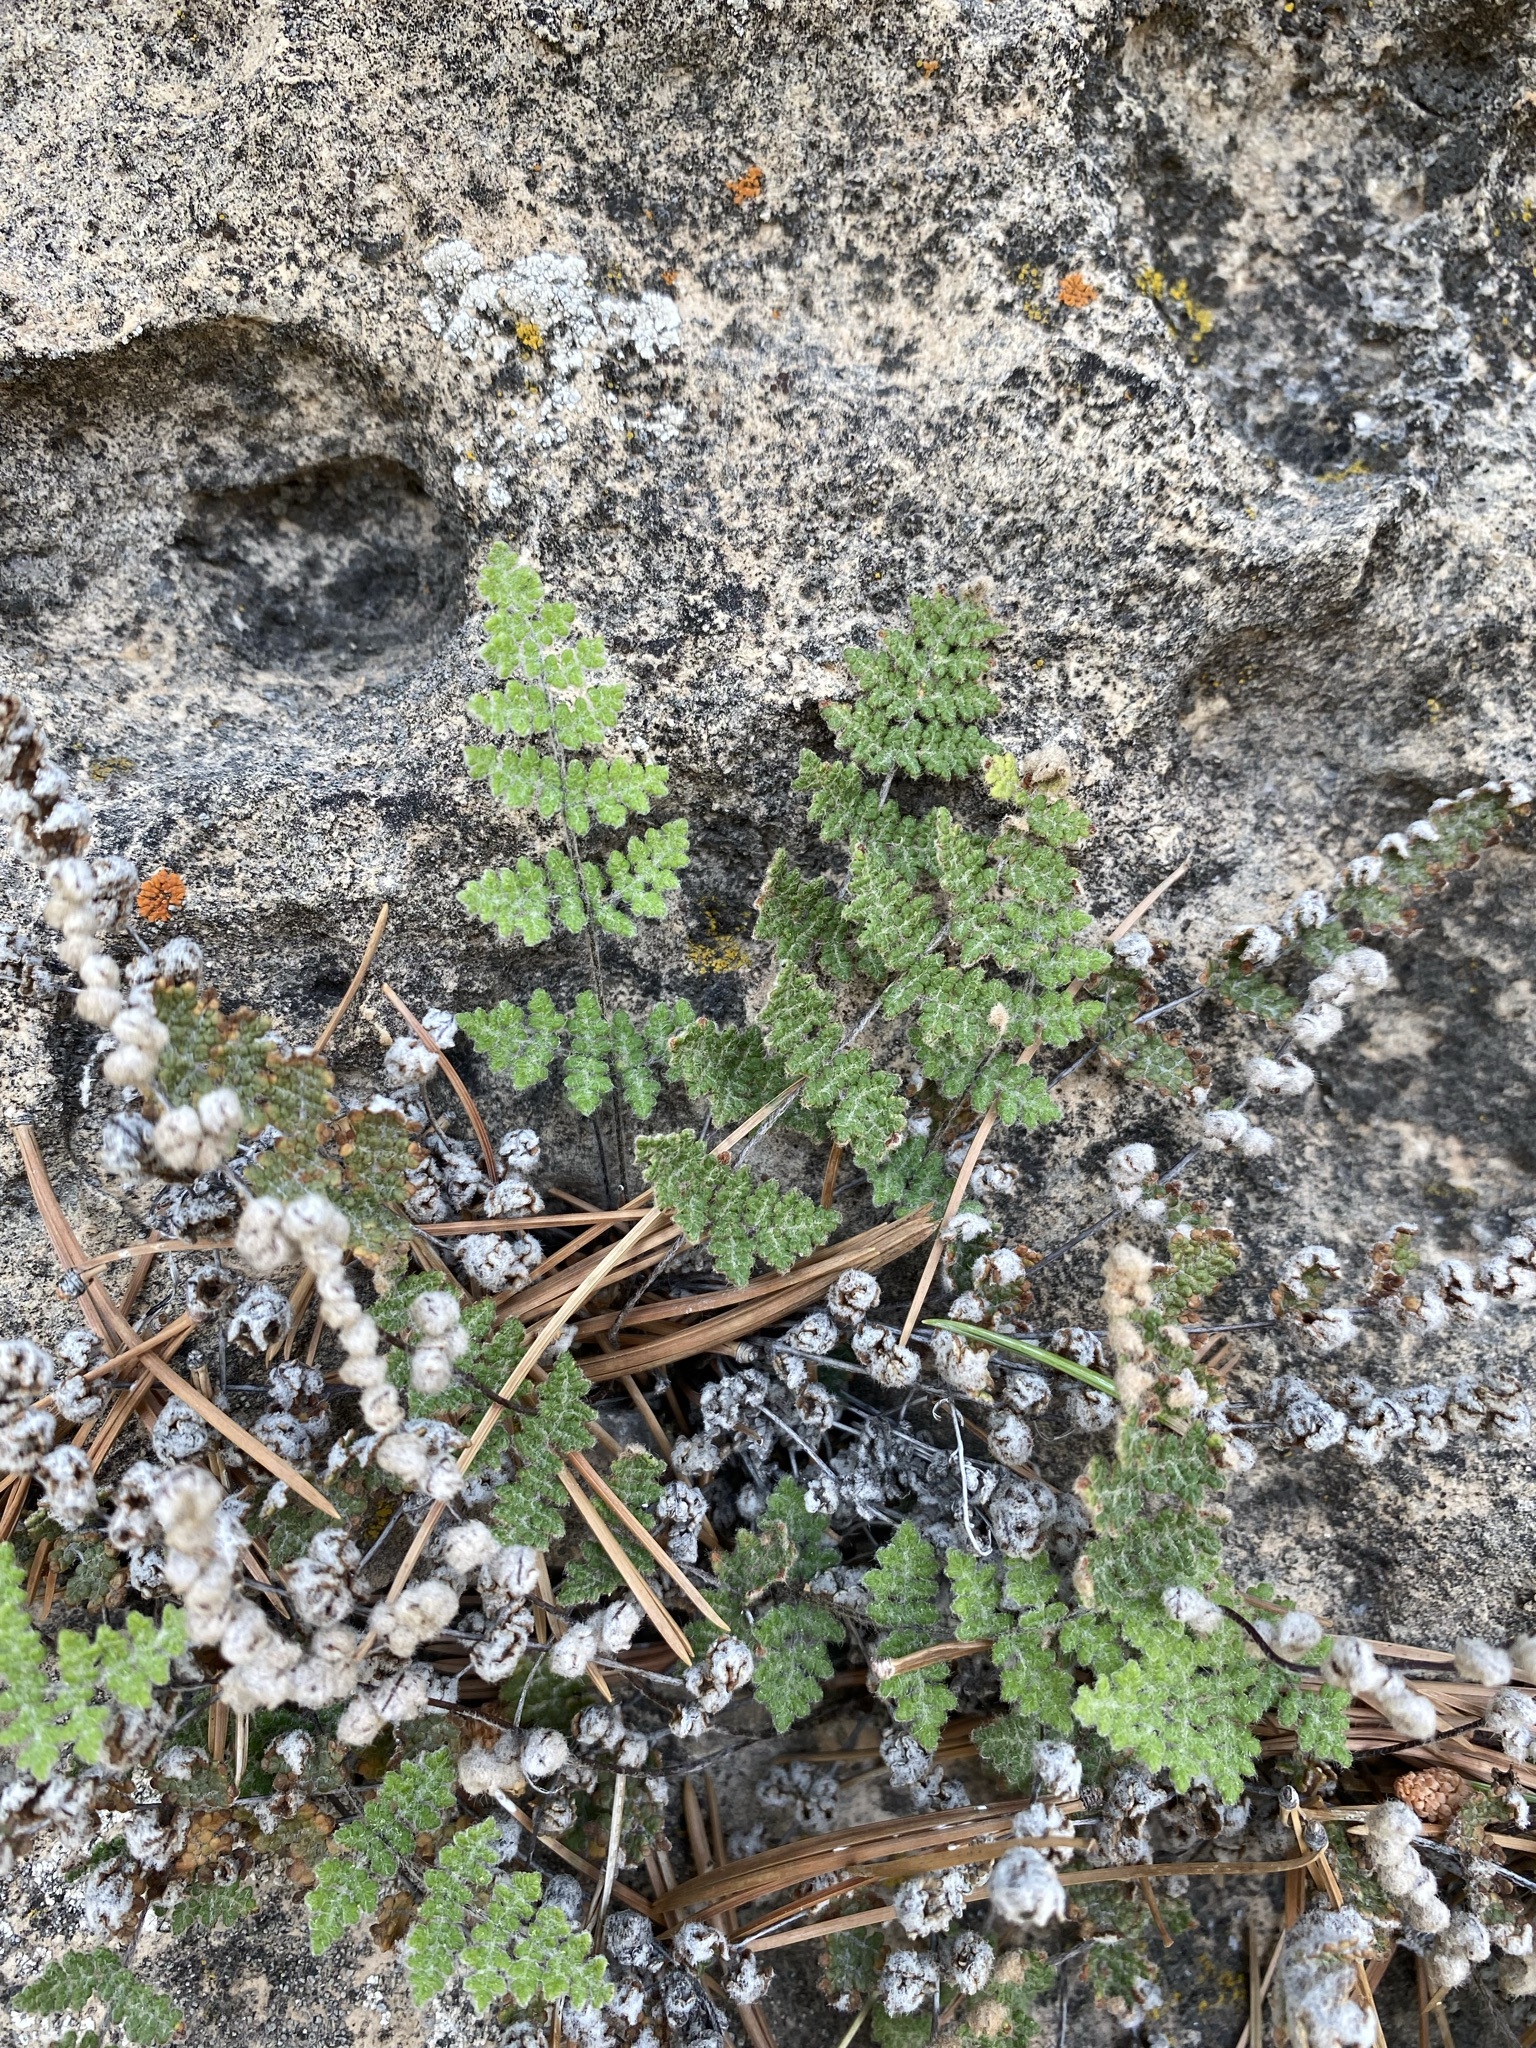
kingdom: Plantae
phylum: Tracheophyta
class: Polypodiopsida
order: Polypodiales
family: Pteridaceae
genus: Myriopteris
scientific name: Myriopteris gracilis
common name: Fee's lip fern
